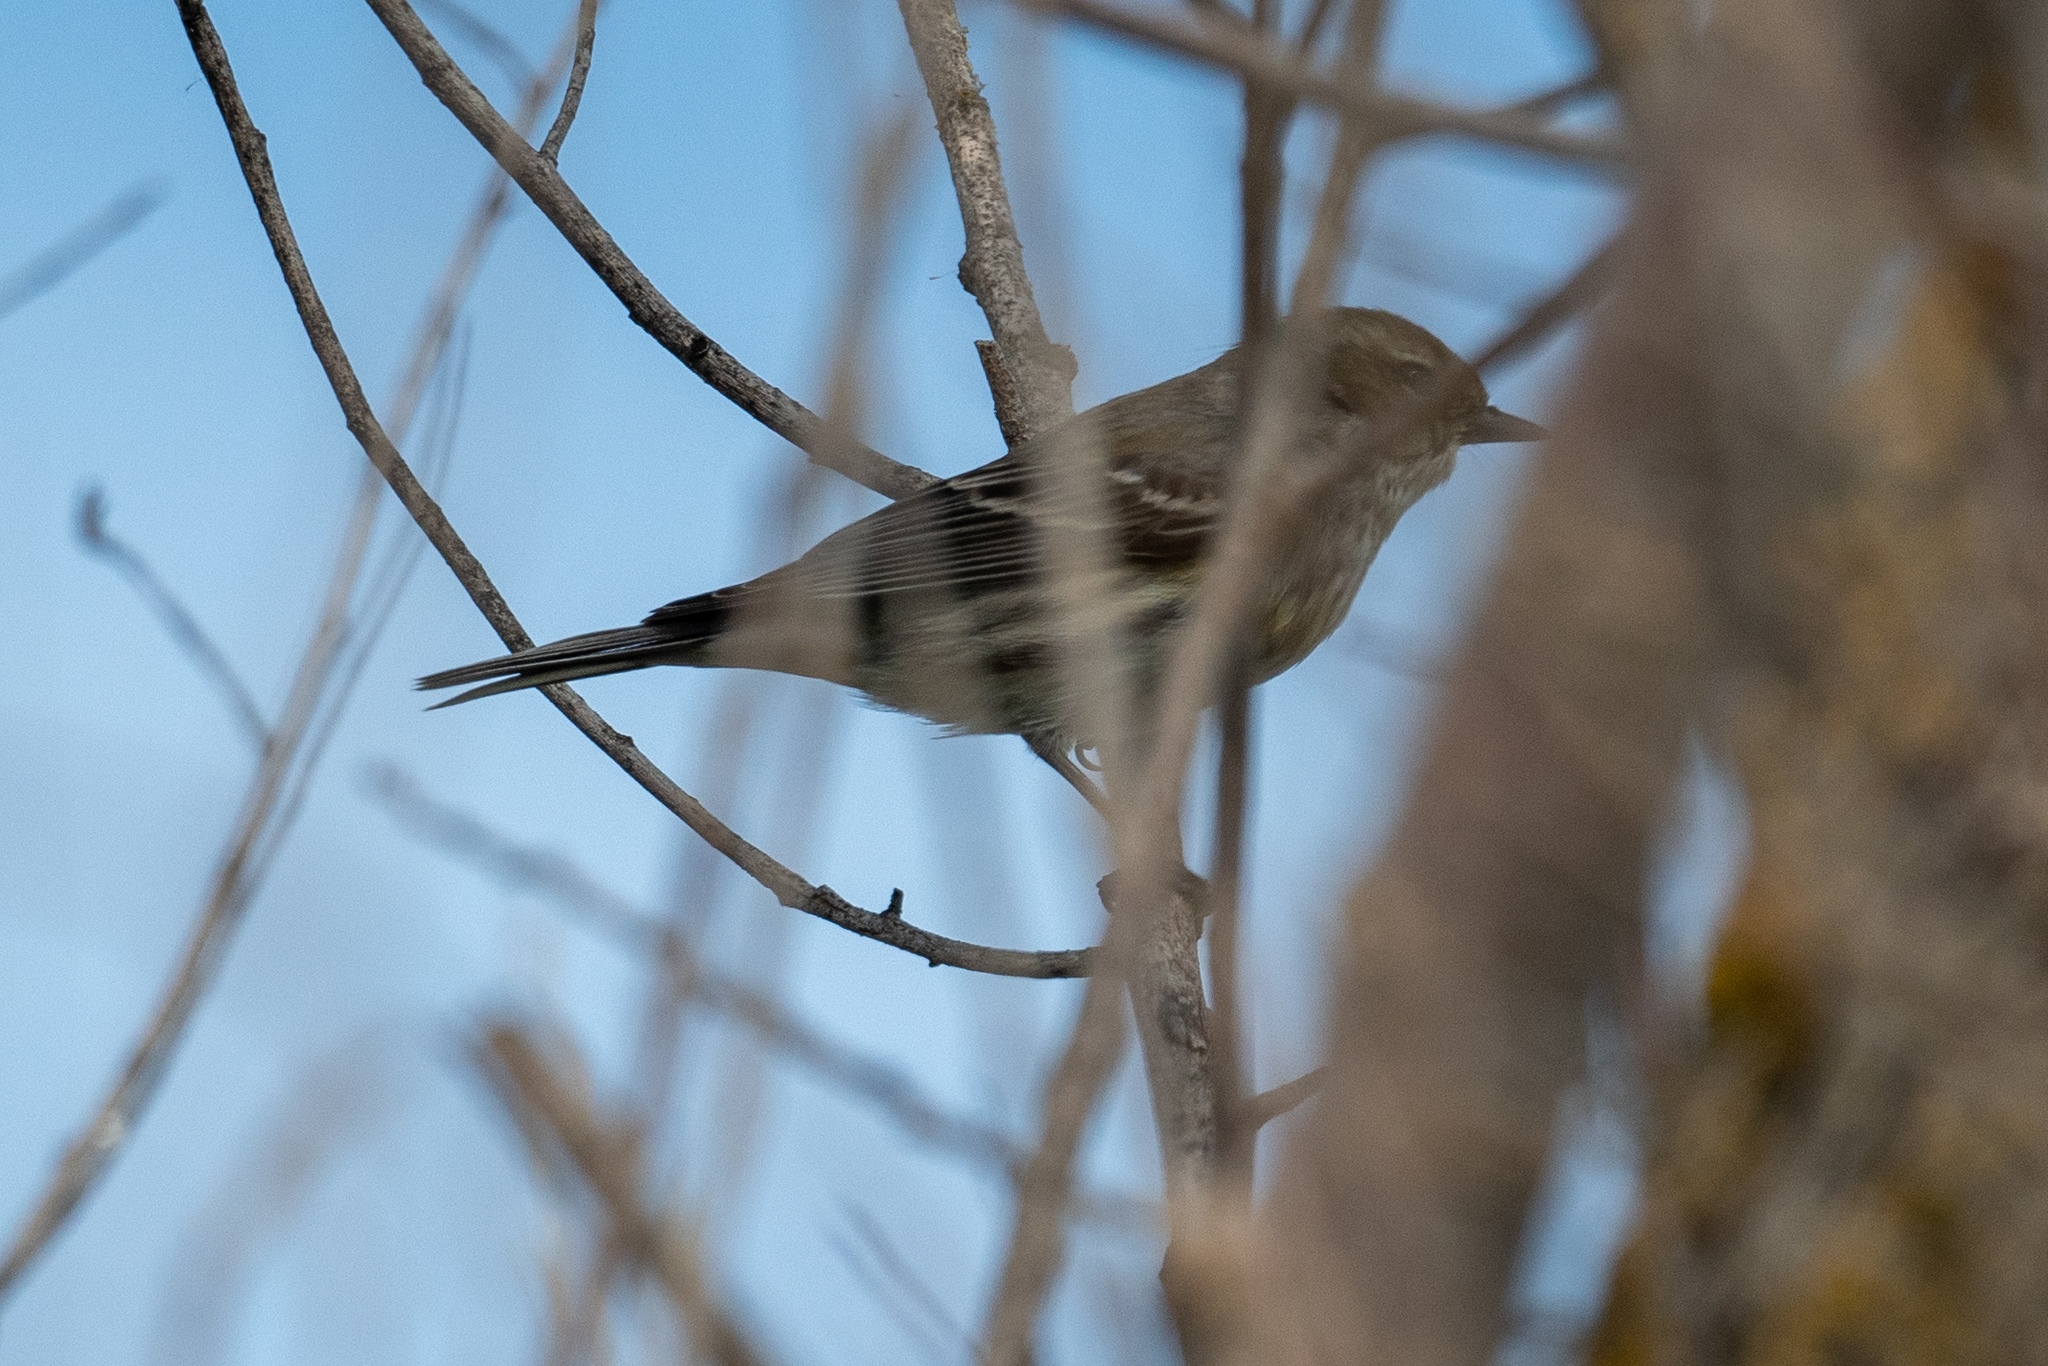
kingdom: Animalia
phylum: Chordata
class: Aves
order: Passeriformes
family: Parulidae
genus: Setophaga
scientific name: Setophaga coronata
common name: Myrtle warbler
